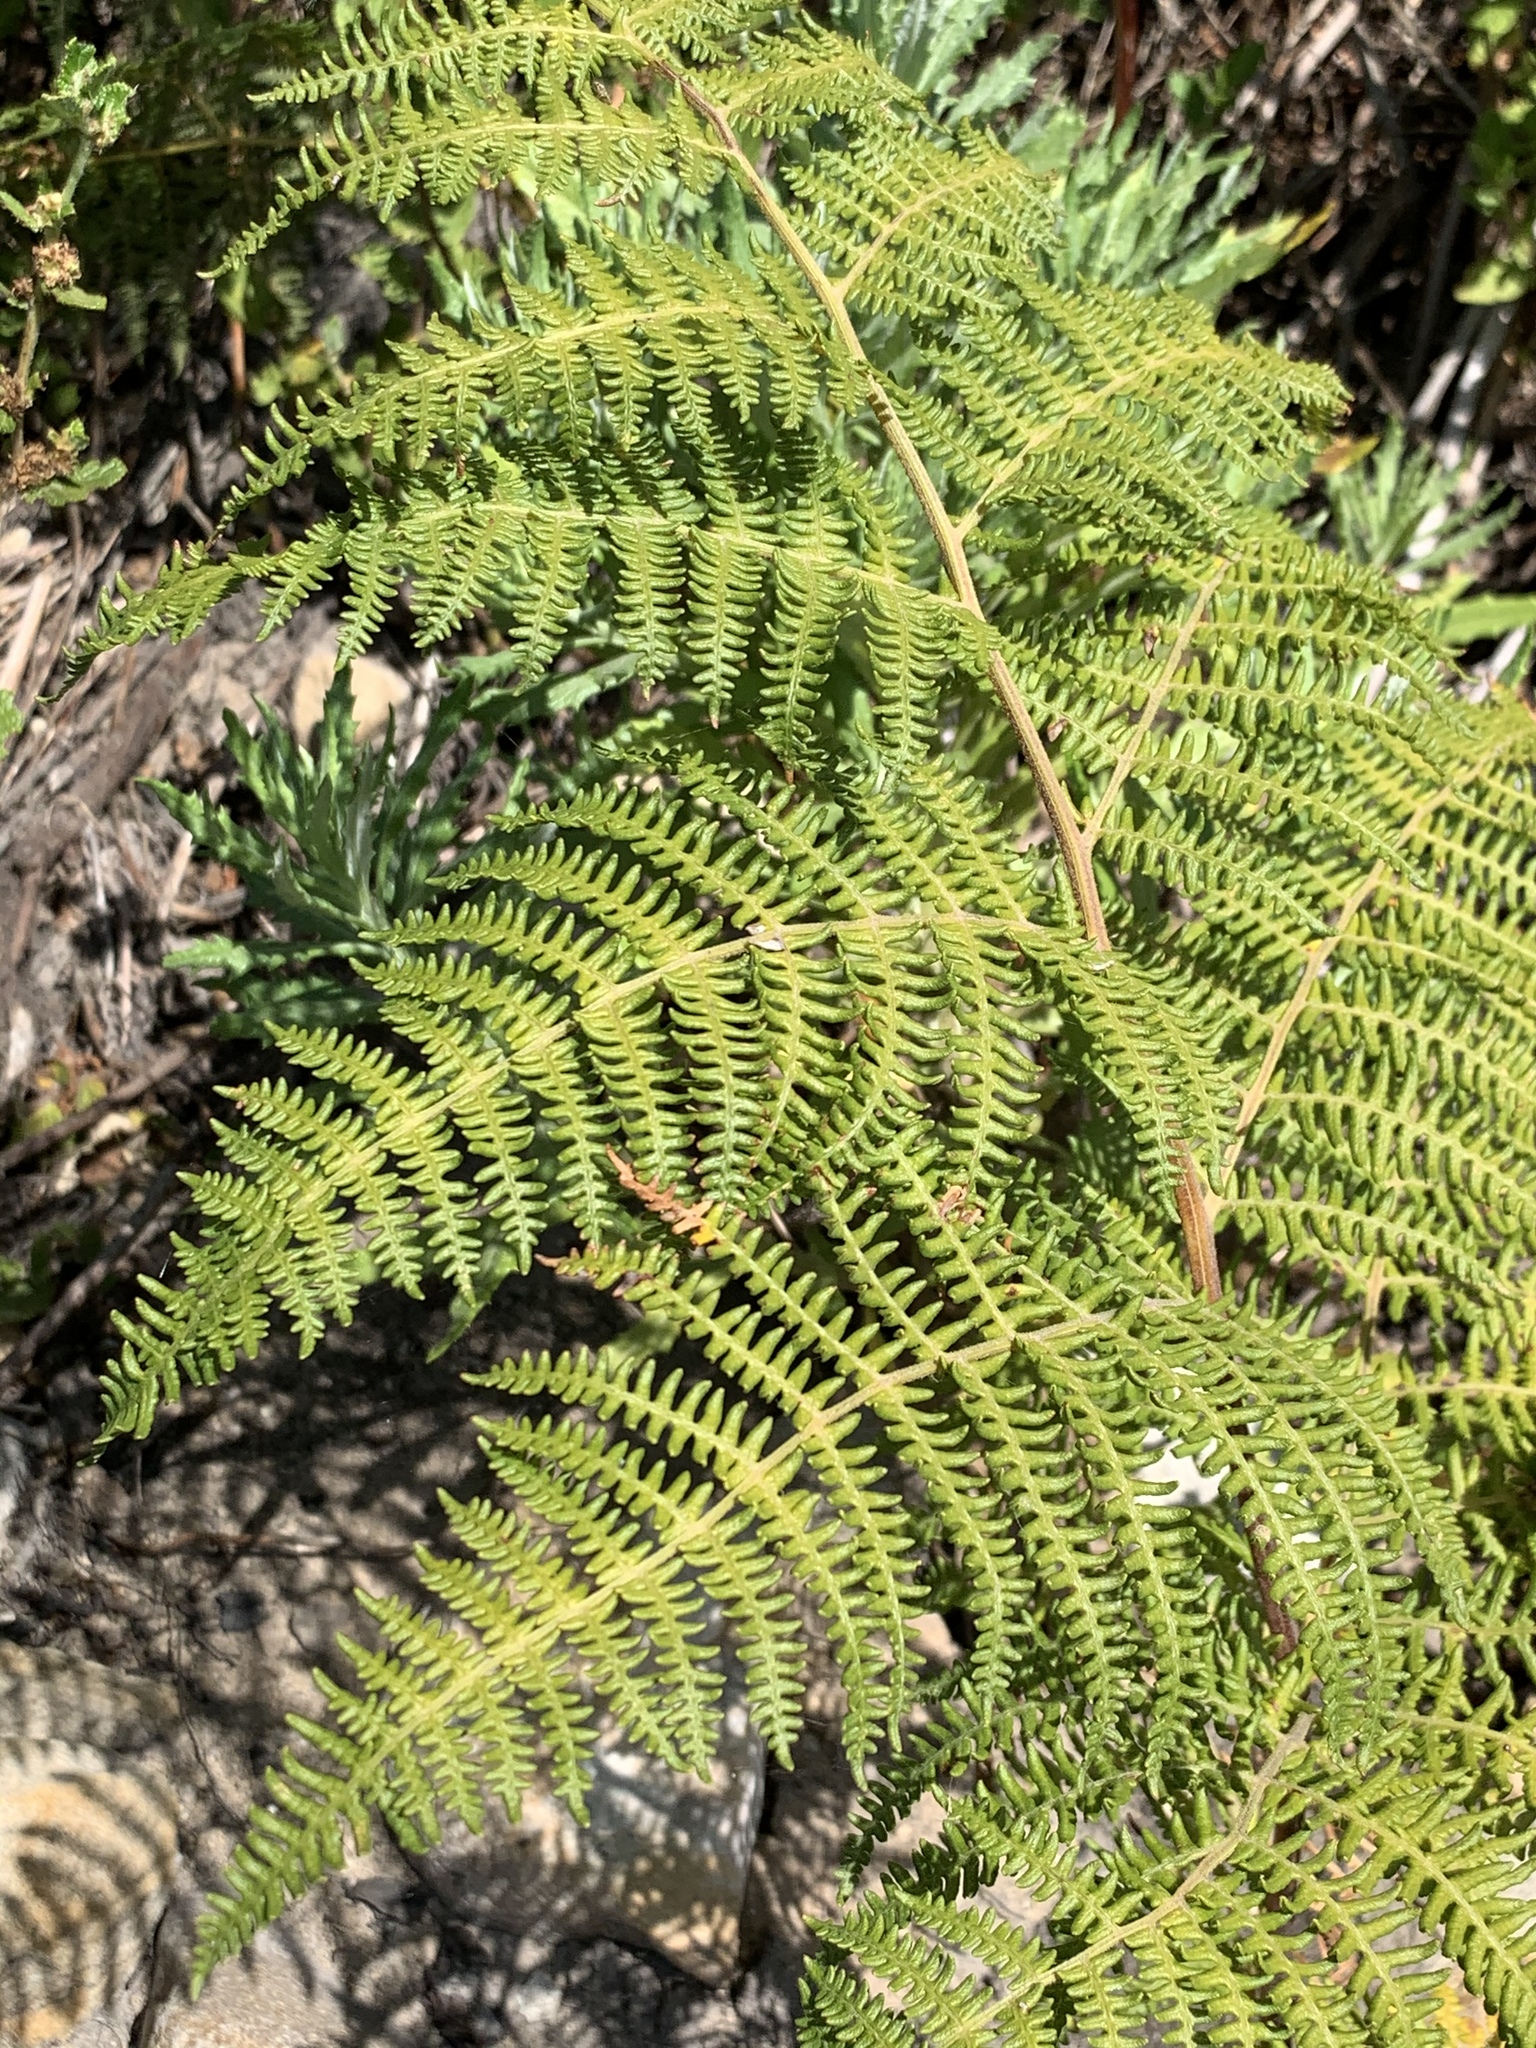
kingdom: Plantae
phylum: Tracheophyta
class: Polypodiopsida
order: Polypodiales
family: Dennstaedtiaceae
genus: Pteridium
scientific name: Pteridium aquilinum
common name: Bracken
